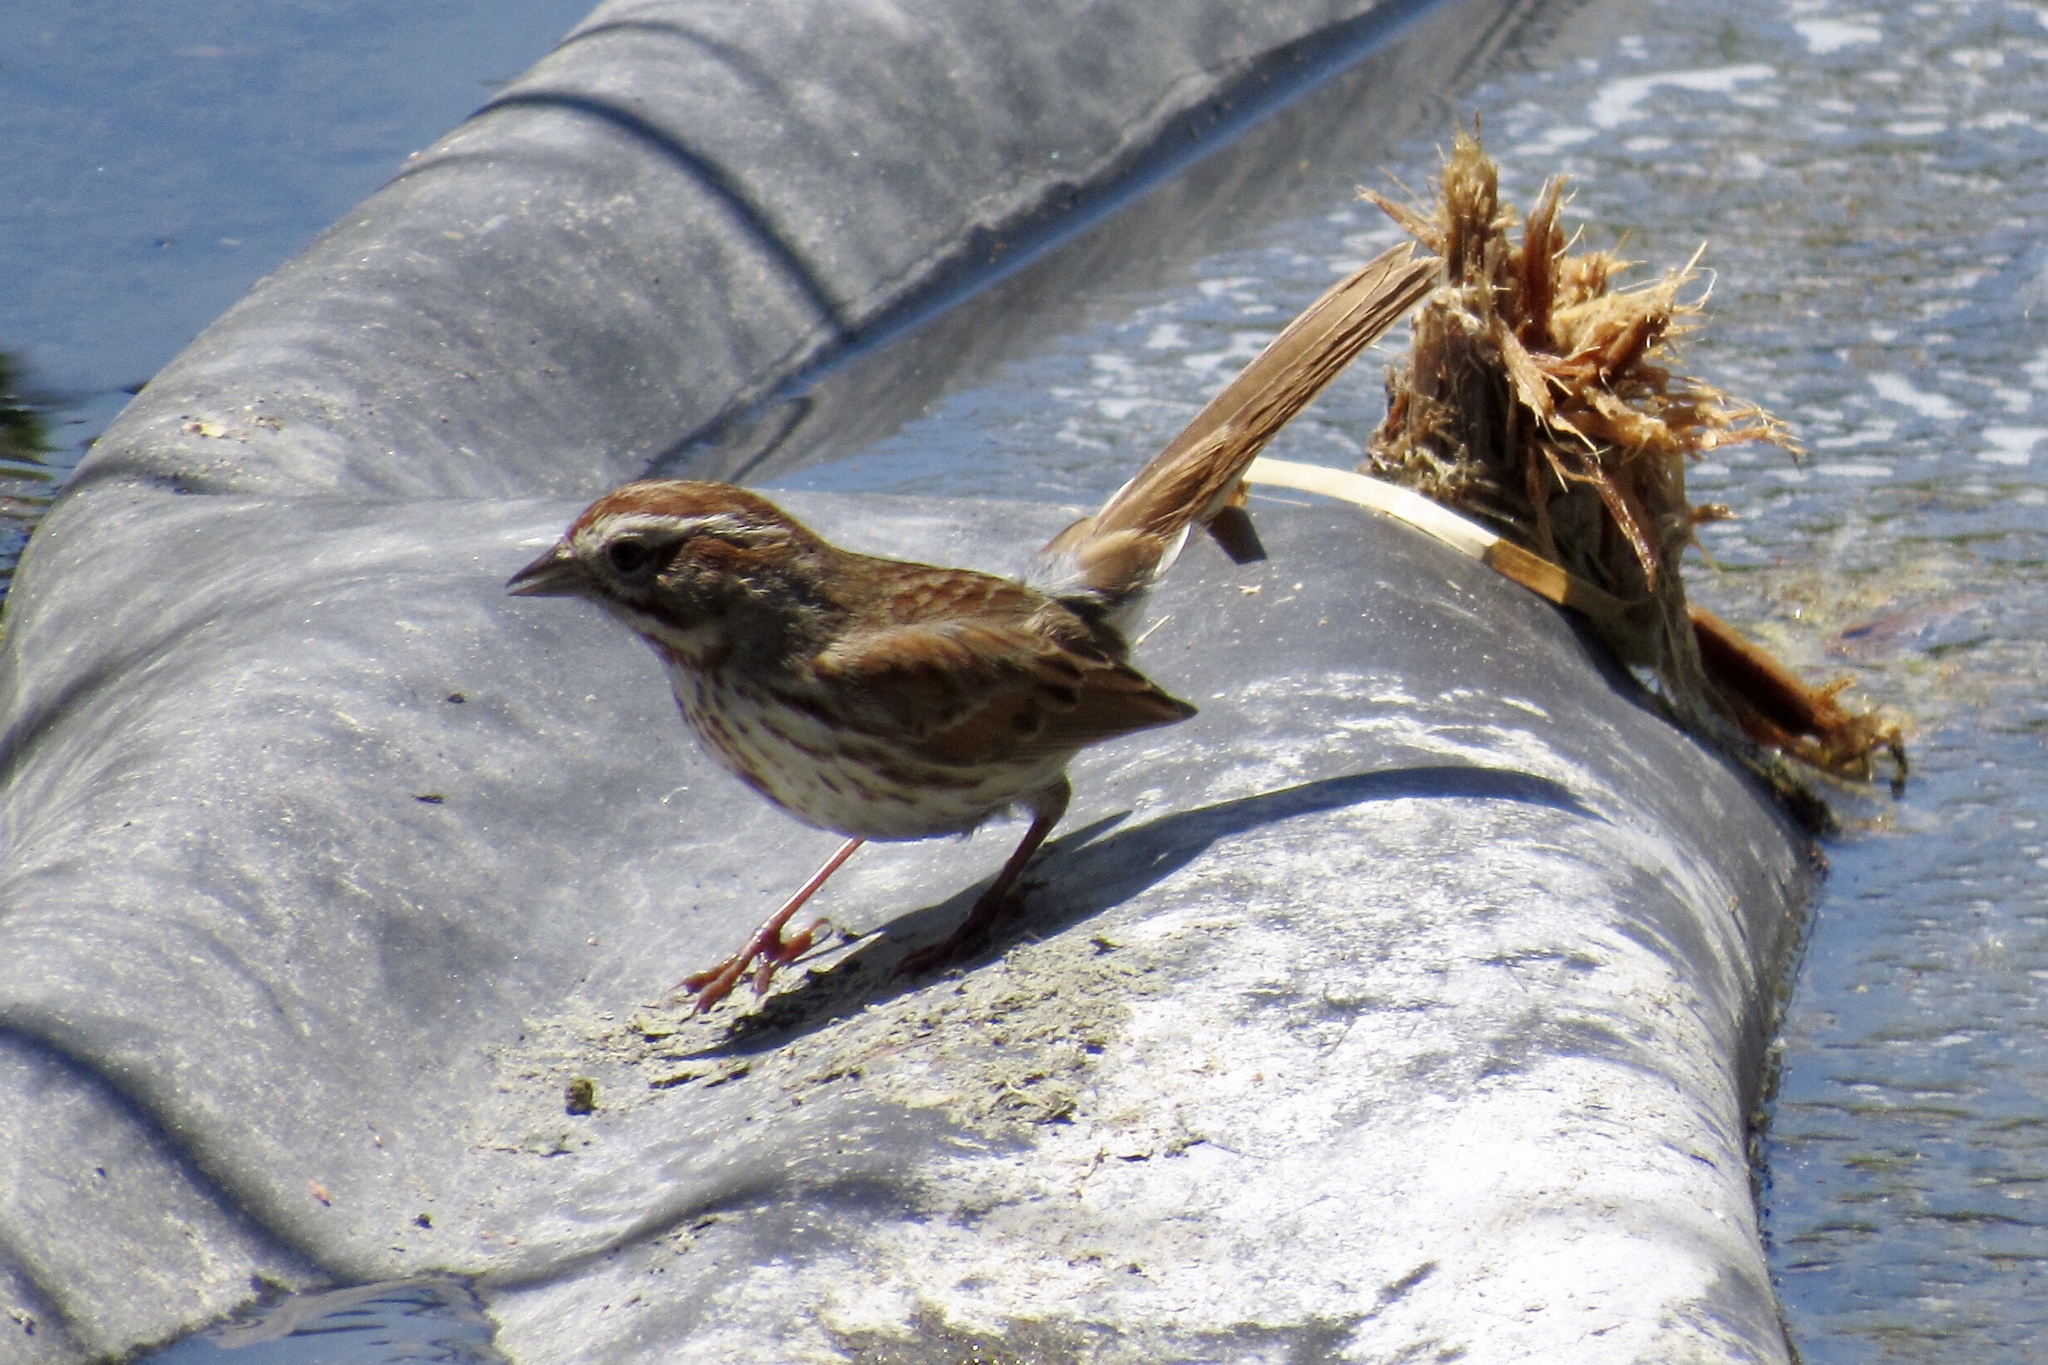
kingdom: Animalia
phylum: Chordata
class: Aves
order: Passeriformes
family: Passerellidae
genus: Melospiza
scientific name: Melospiza melodia
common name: Song sparrow
